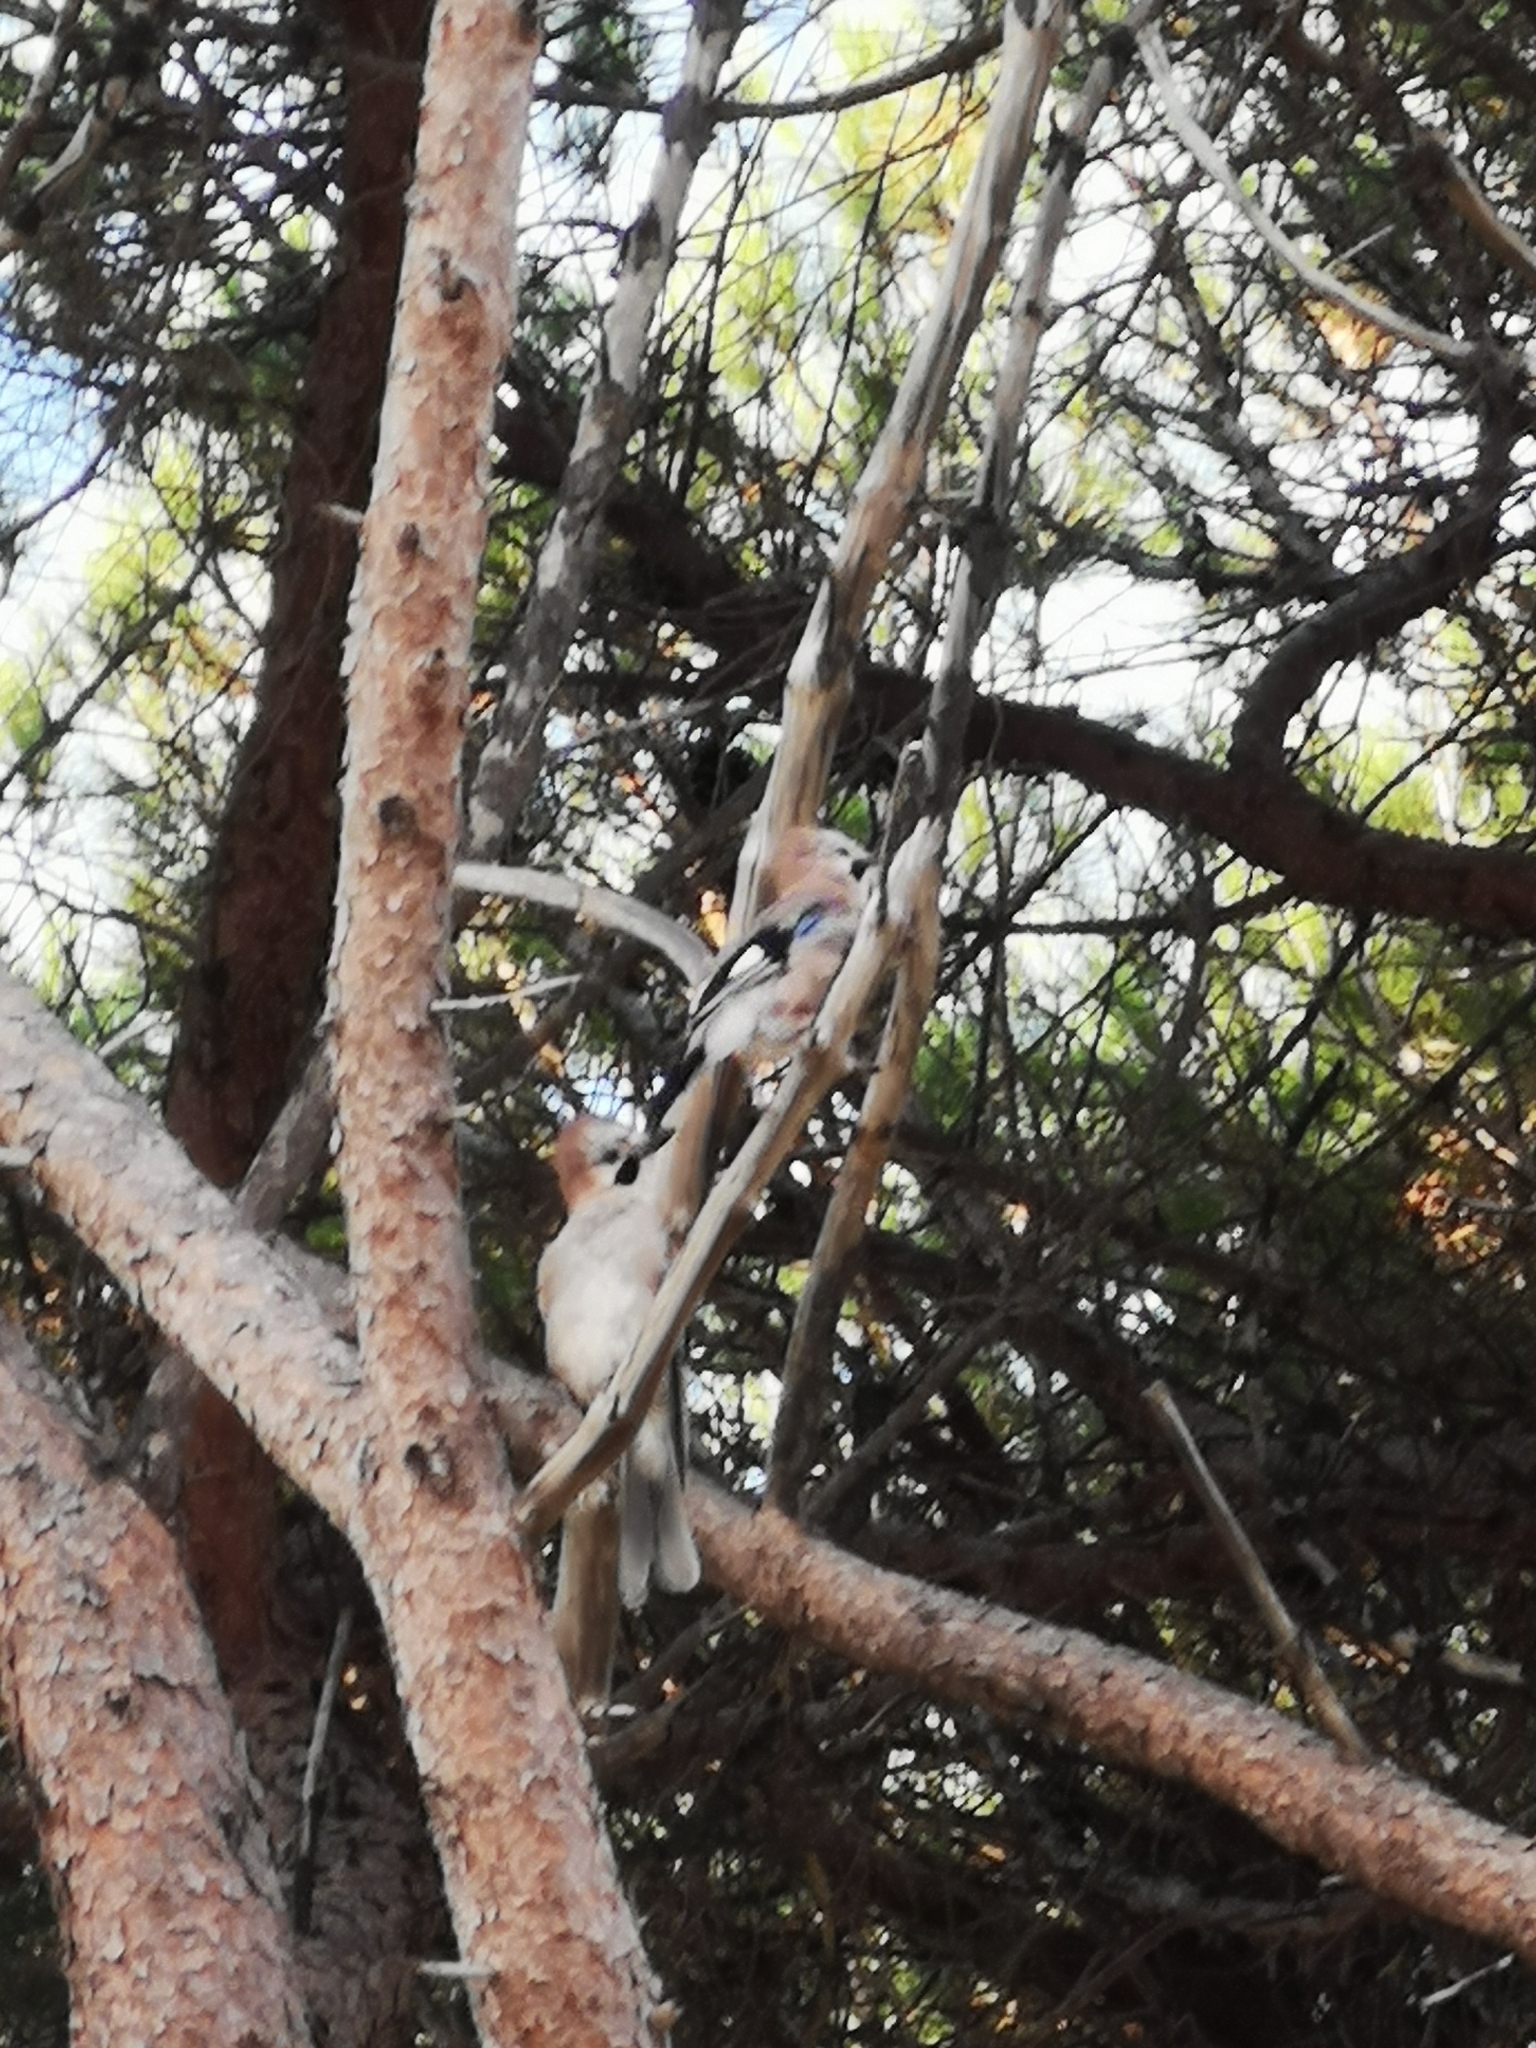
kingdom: Animalia
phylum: Chordata
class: Aves
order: Passeriformes
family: Corvidae
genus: Garrulus
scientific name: Garrulus glandarius
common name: Eurasian jay
